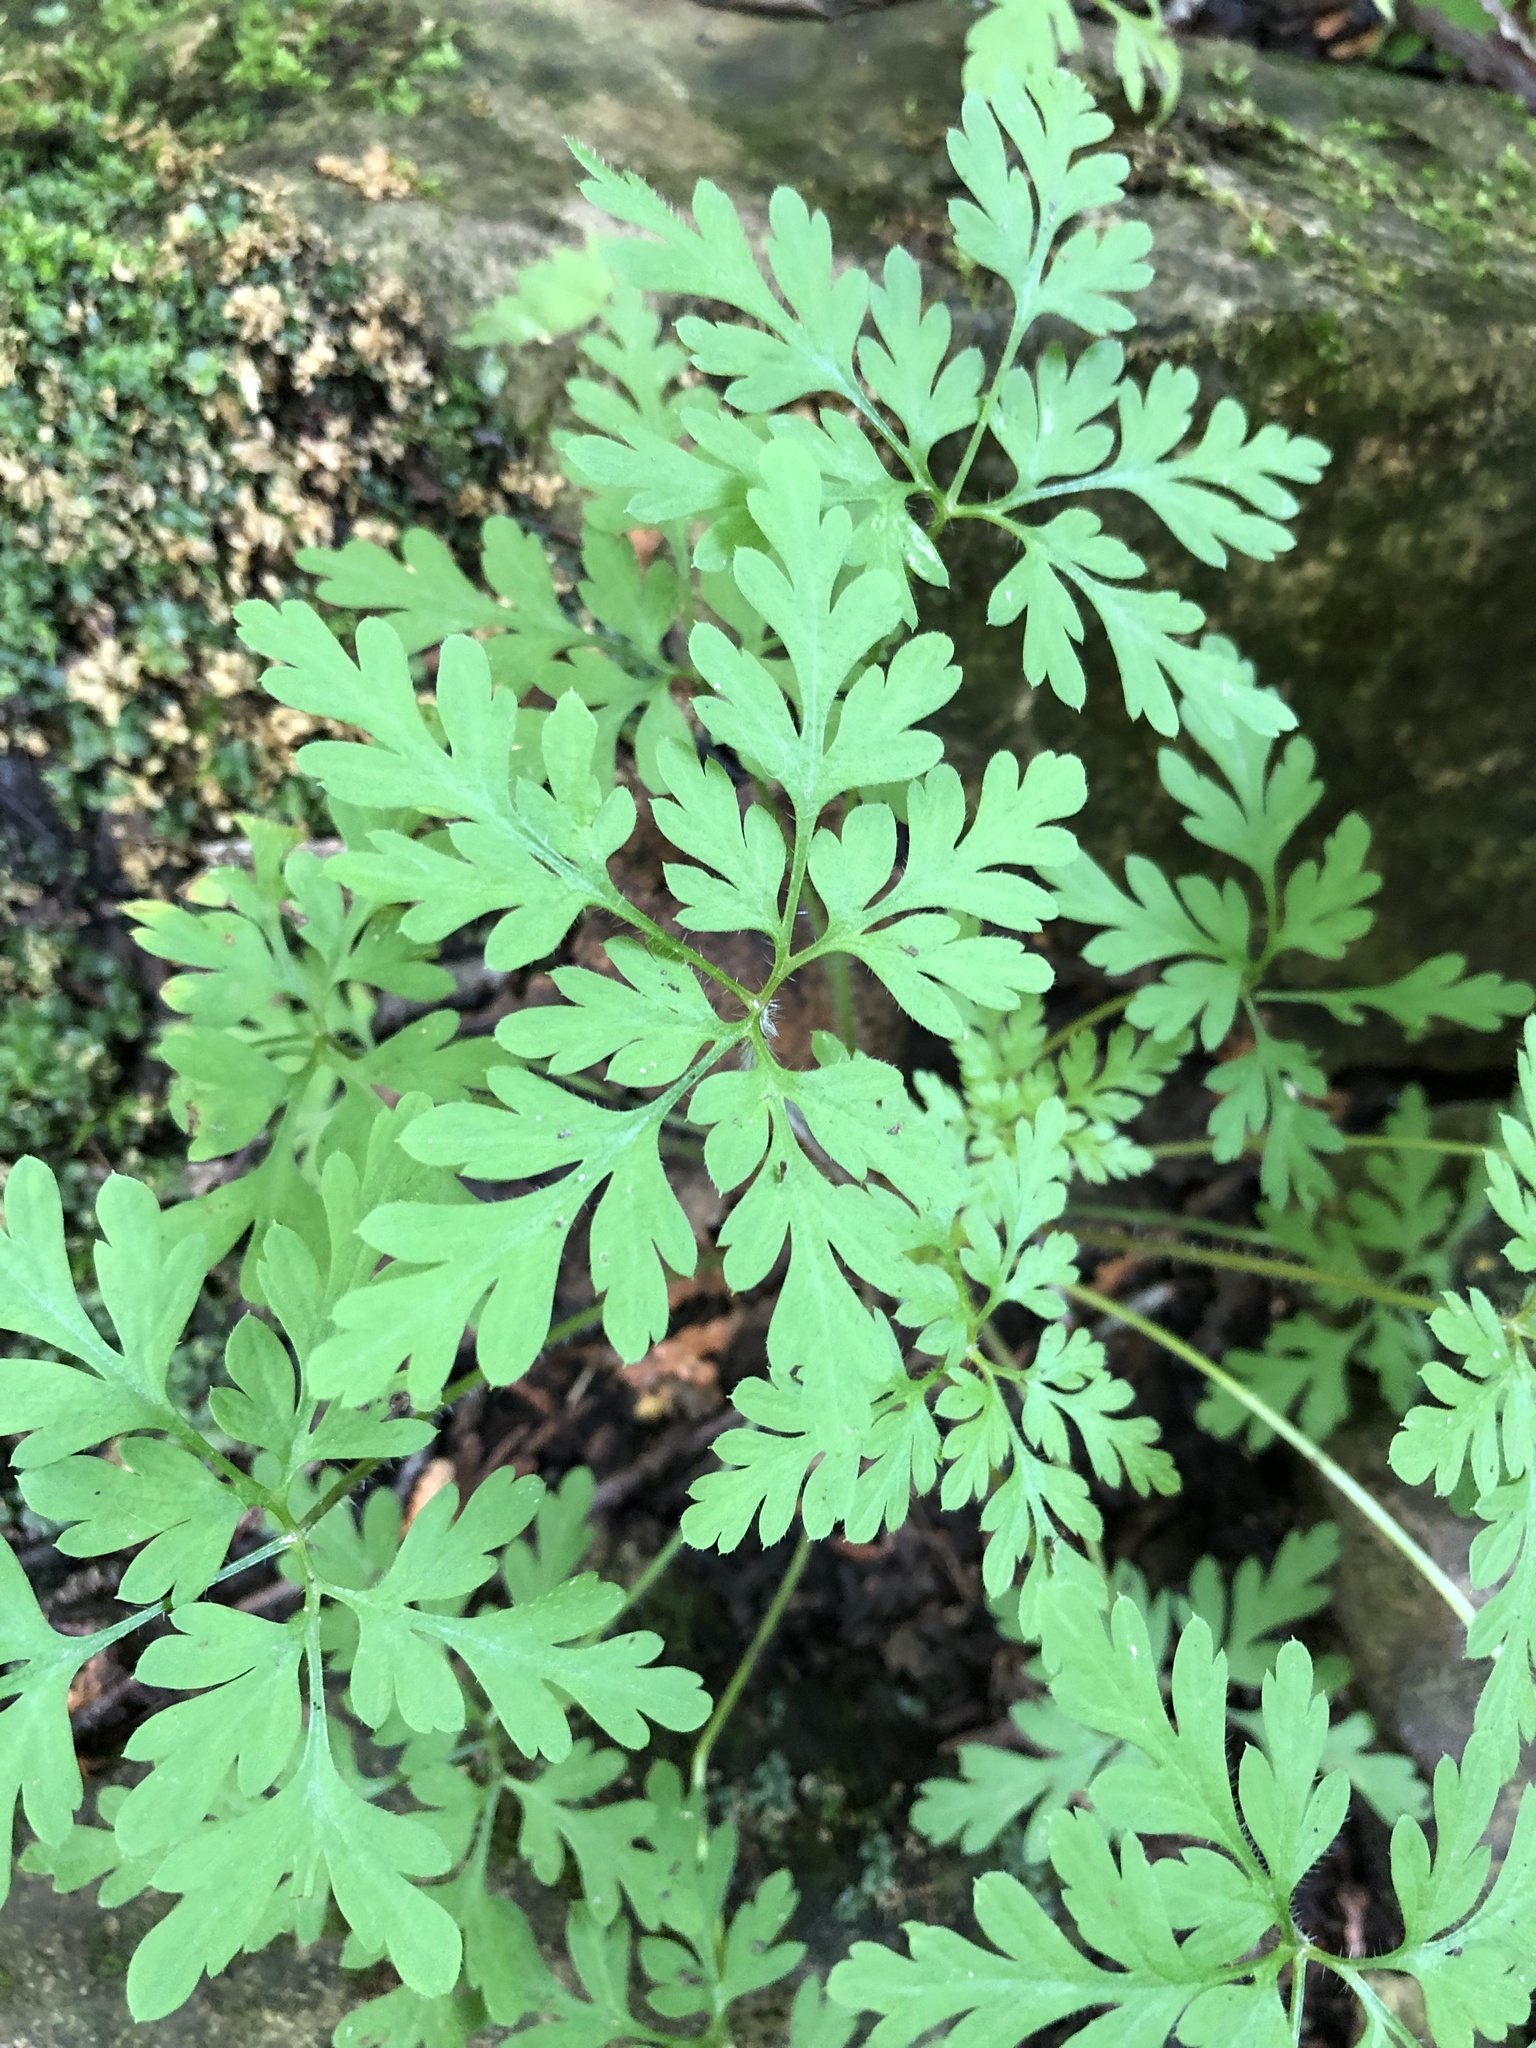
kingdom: Plantae
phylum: Tracheophyta
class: Magnoliopsida
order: Geraniales
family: Geraniaceae
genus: Geranium
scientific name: Geranium robertianum
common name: Herb-robert
